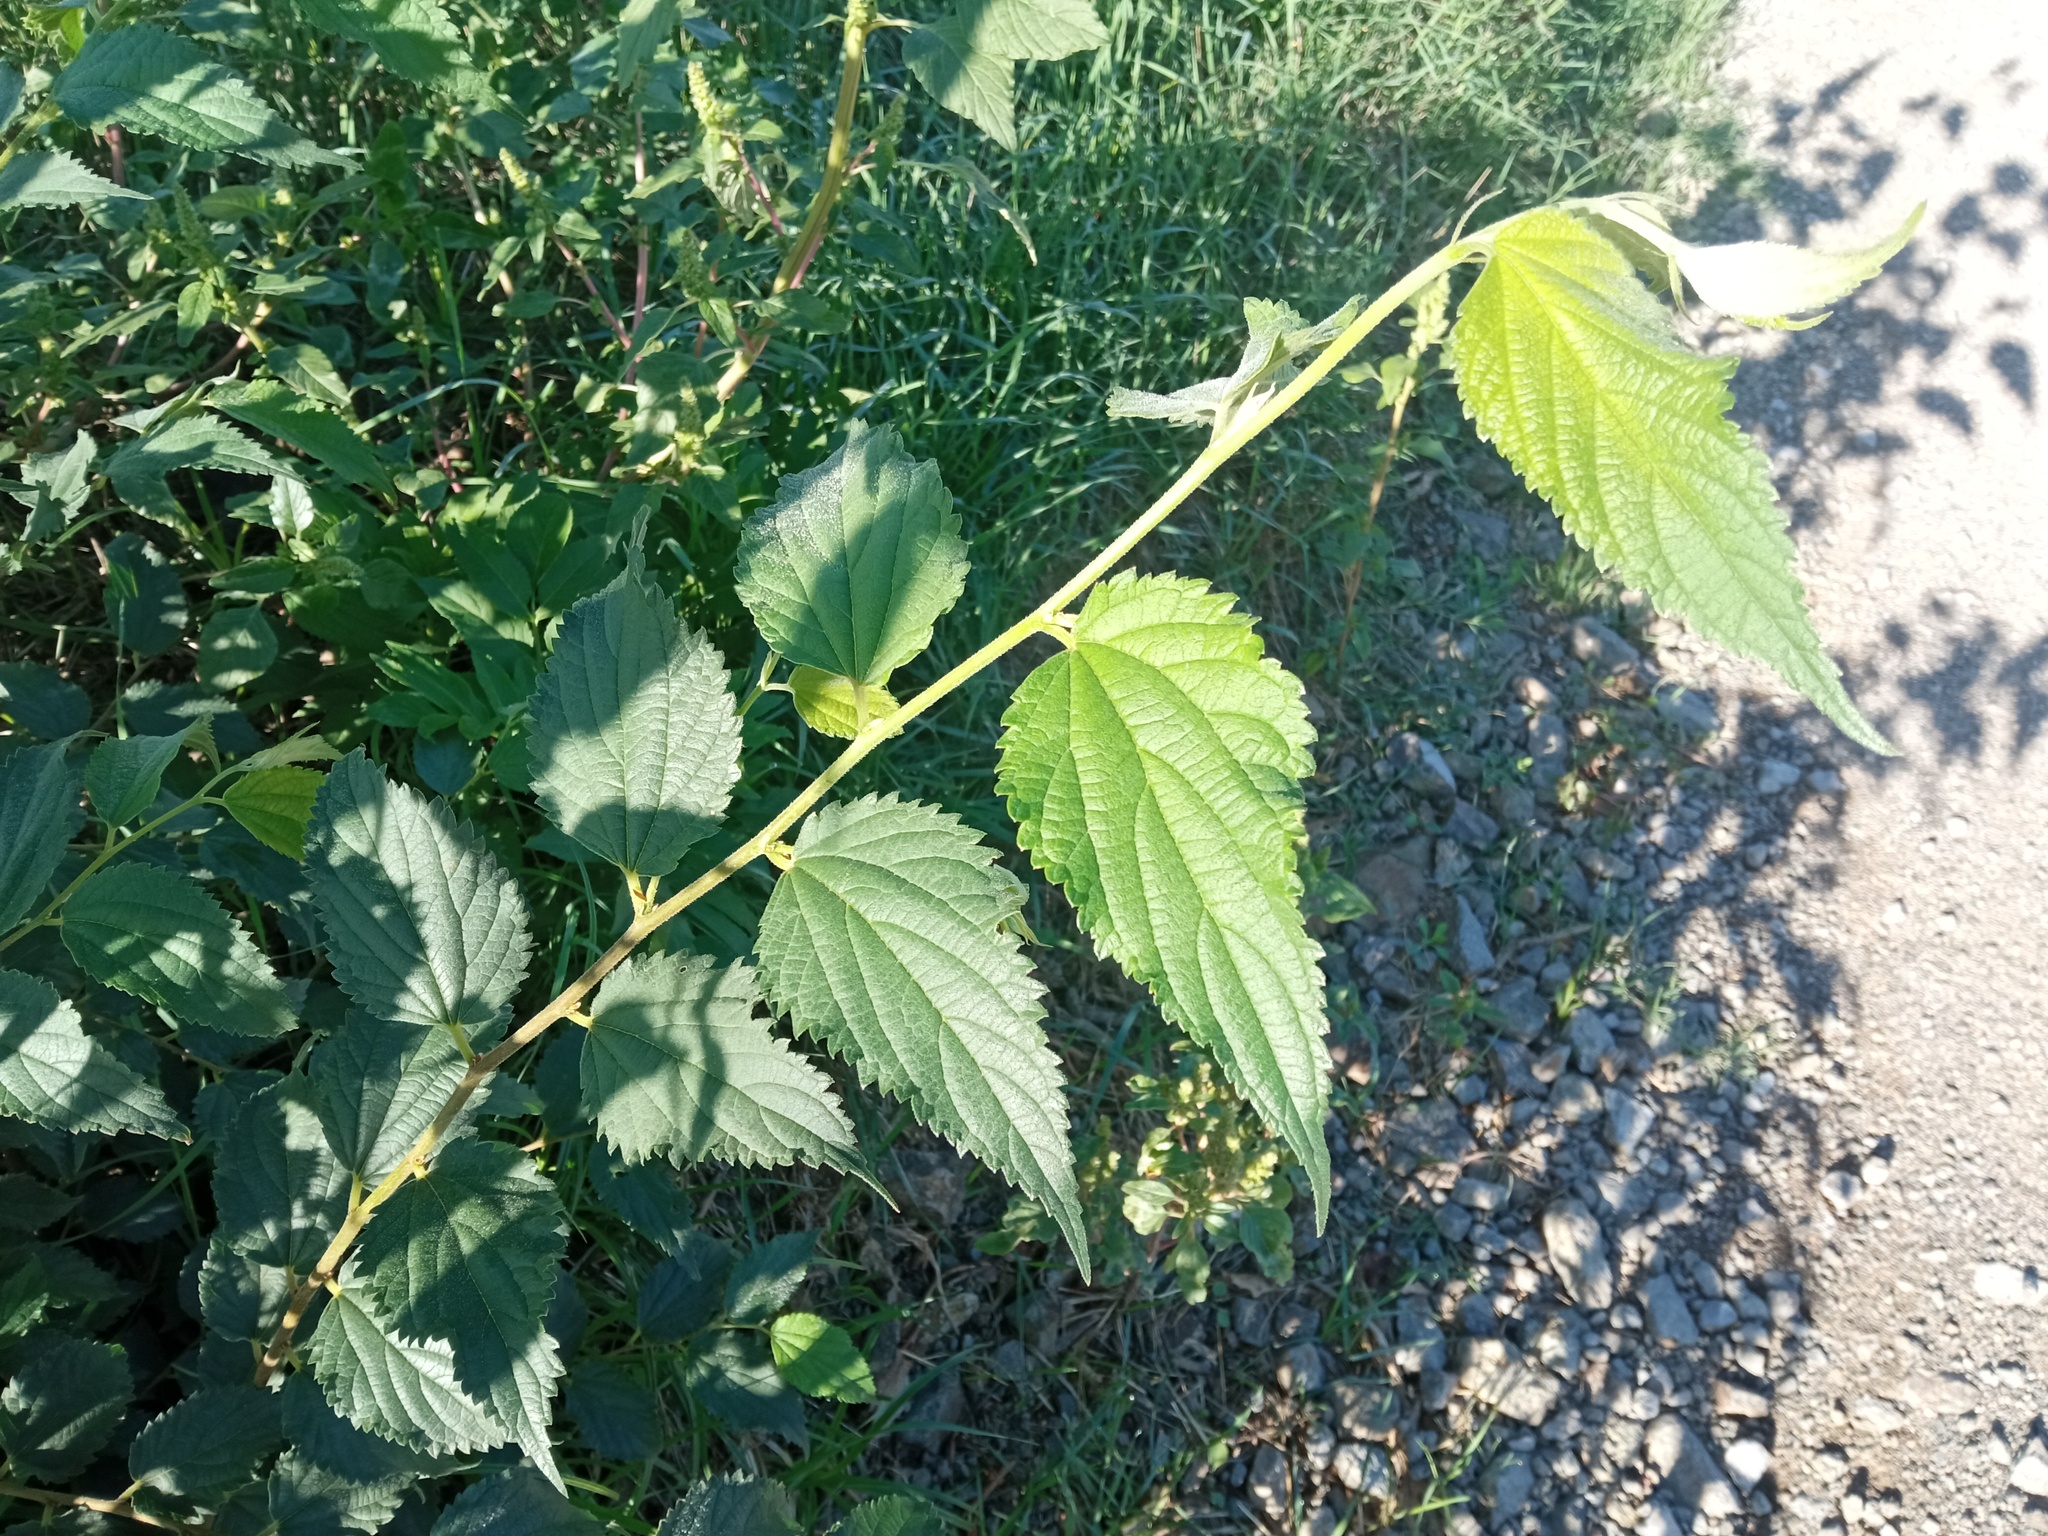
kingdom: Plantae
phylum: Tracheophyta
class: Magnoliopsida
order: Rosales
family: Cannabaceae
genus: Celtis
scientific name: Celtis australis
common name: European hackberry
